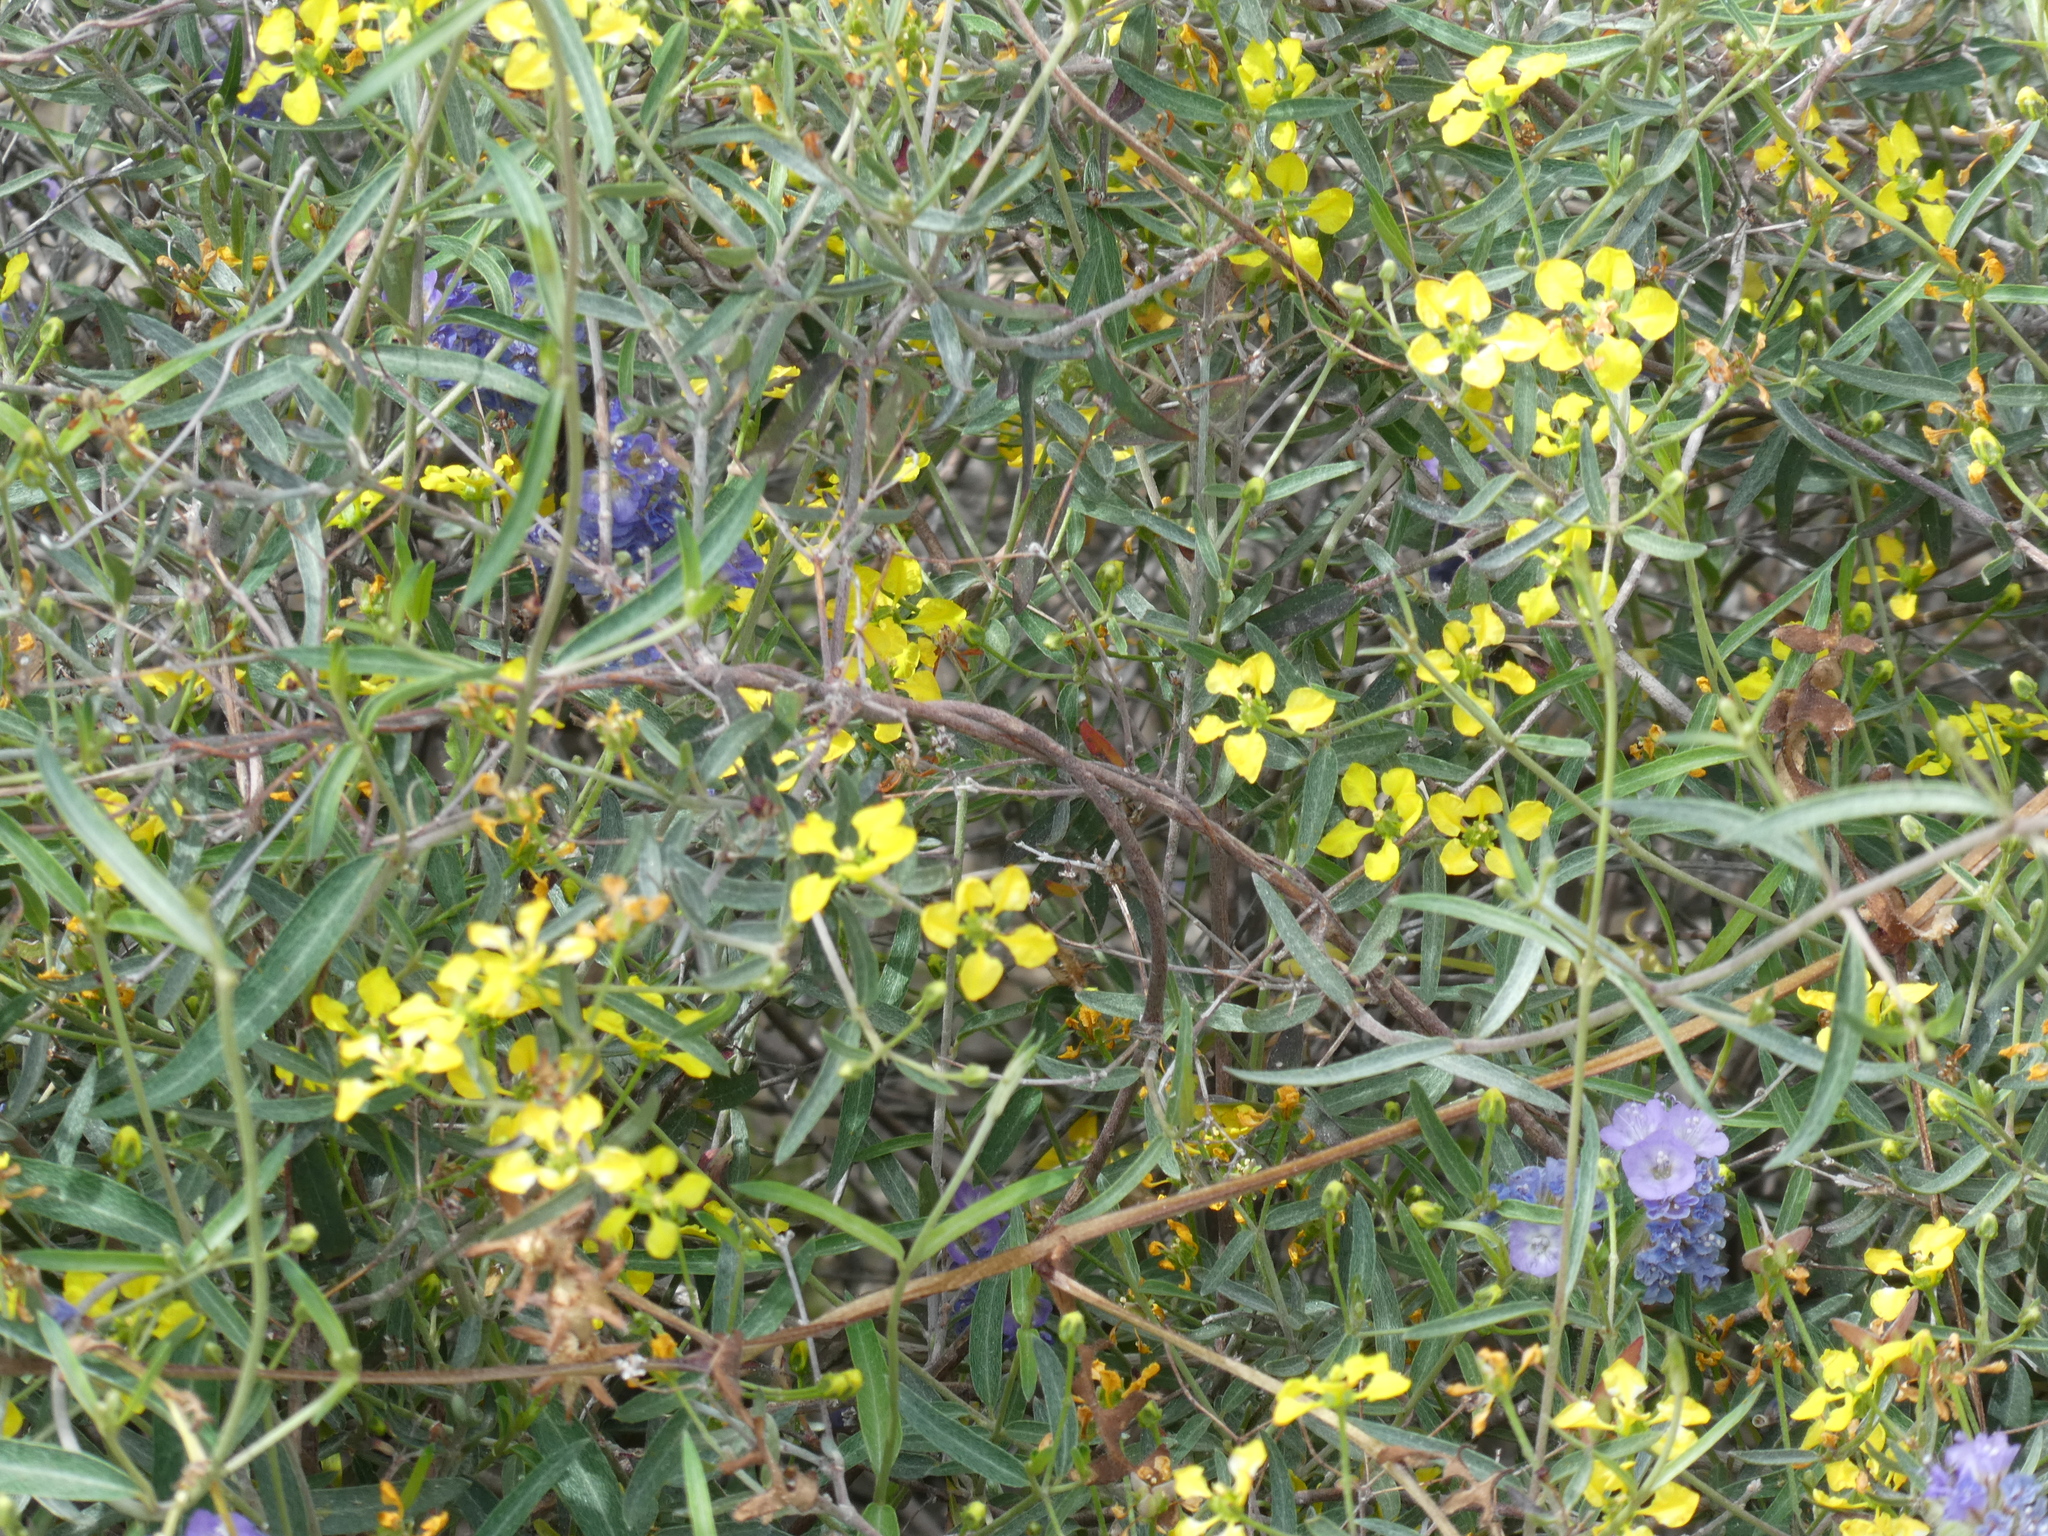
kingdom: Plantae
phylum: Tracheophyta
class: Magnoliopsida
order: Malpighiales
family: Malpighiaceae
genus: Cottsia
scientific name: Cottsia gracilis
